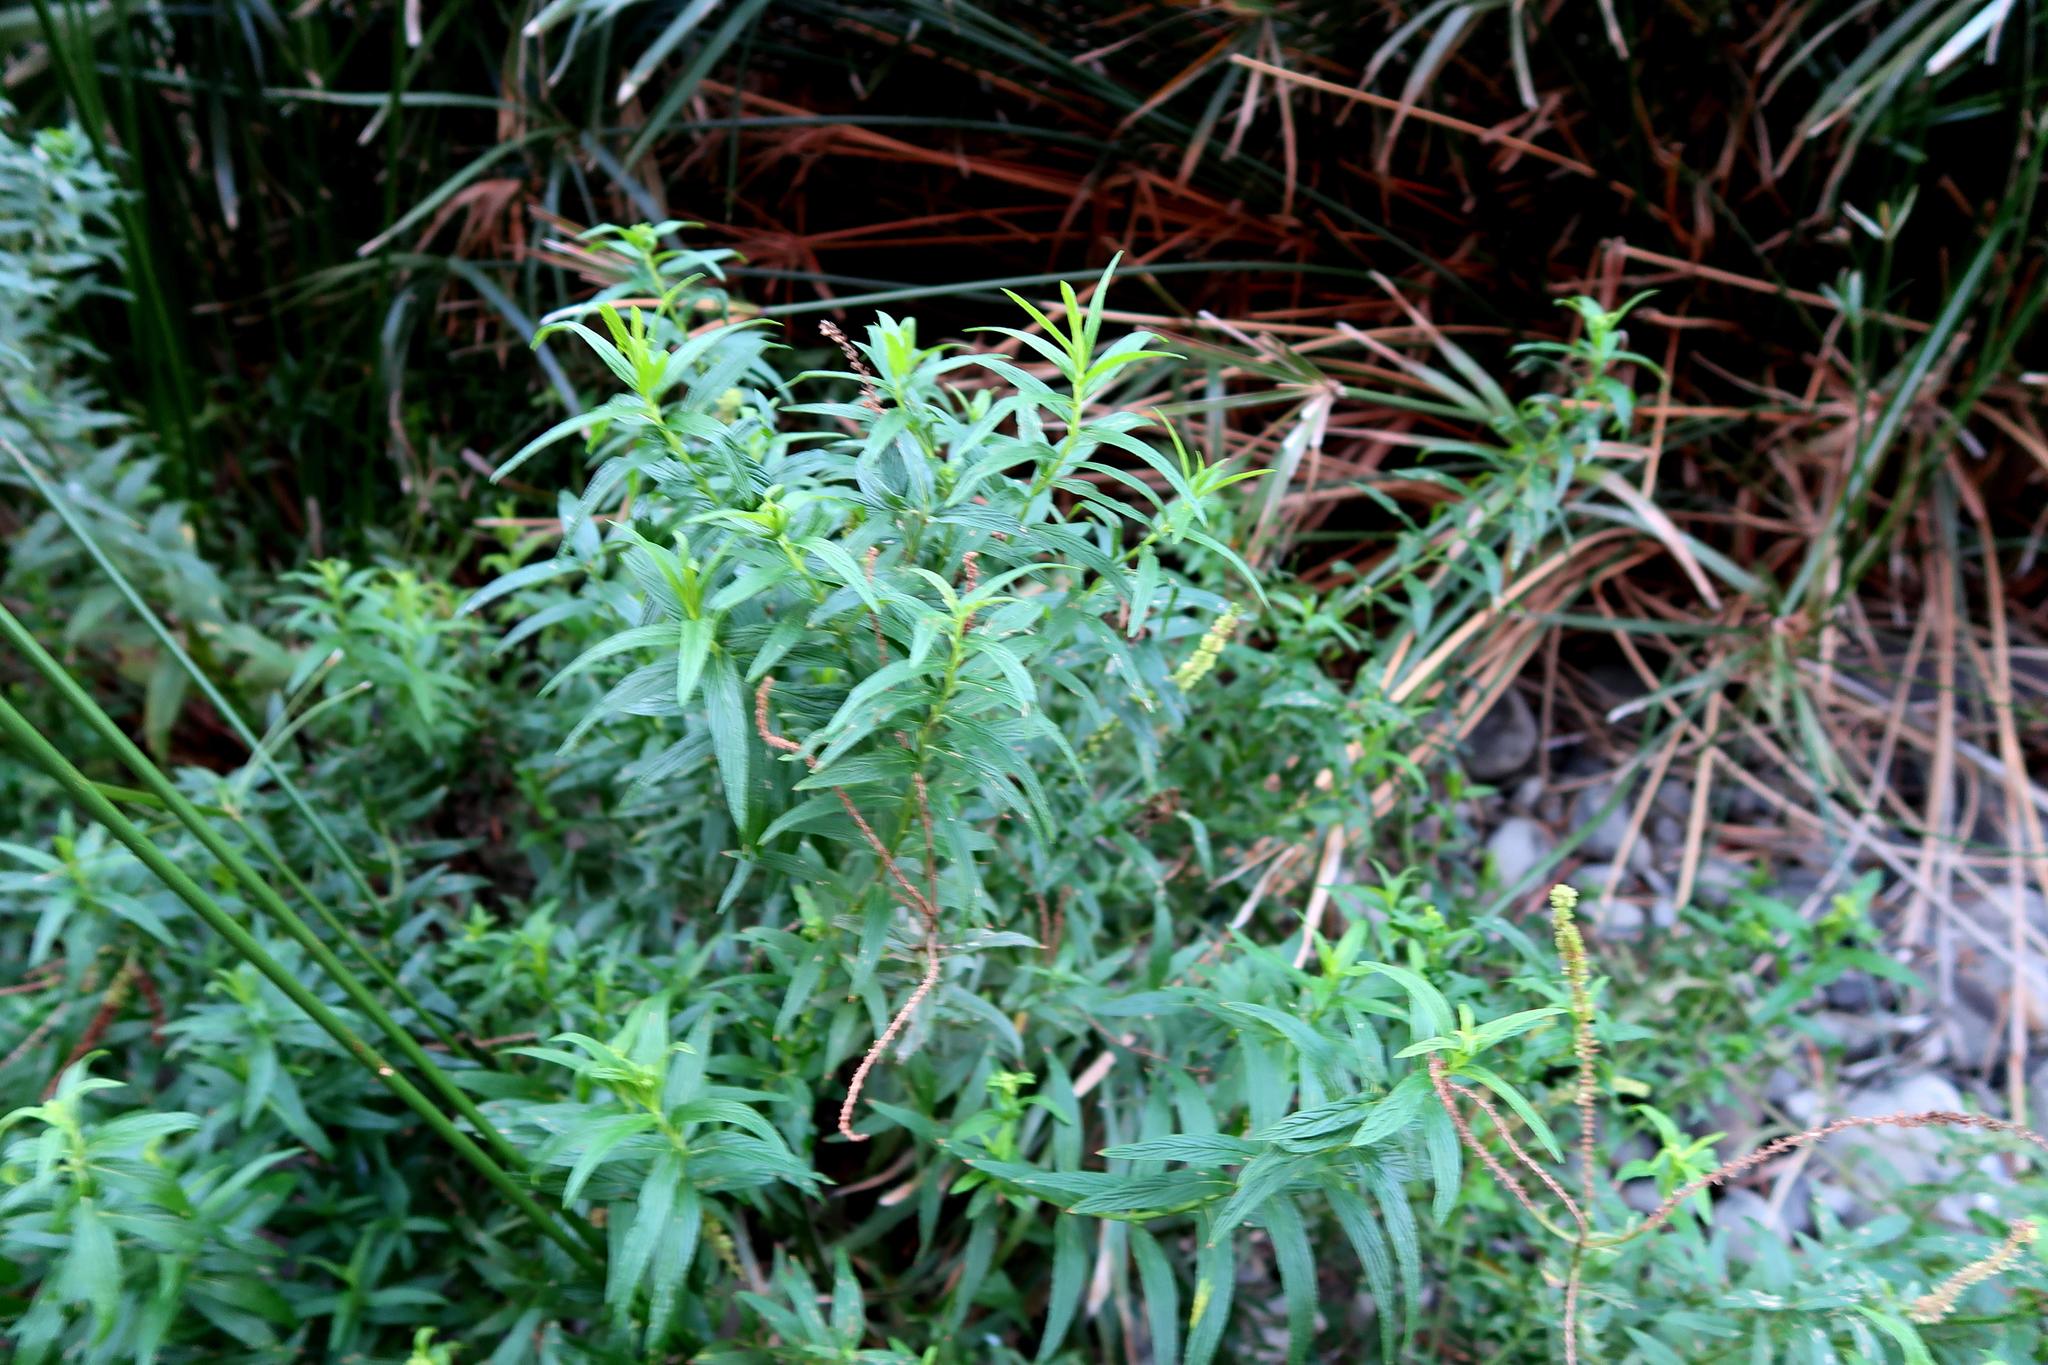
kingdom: Plantae
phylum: Tracheophyta
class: Magnoliopsida
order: Lamiales
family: Lamiaceae
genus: Mentha
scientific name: Mentha longifolia
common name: Horse mint
